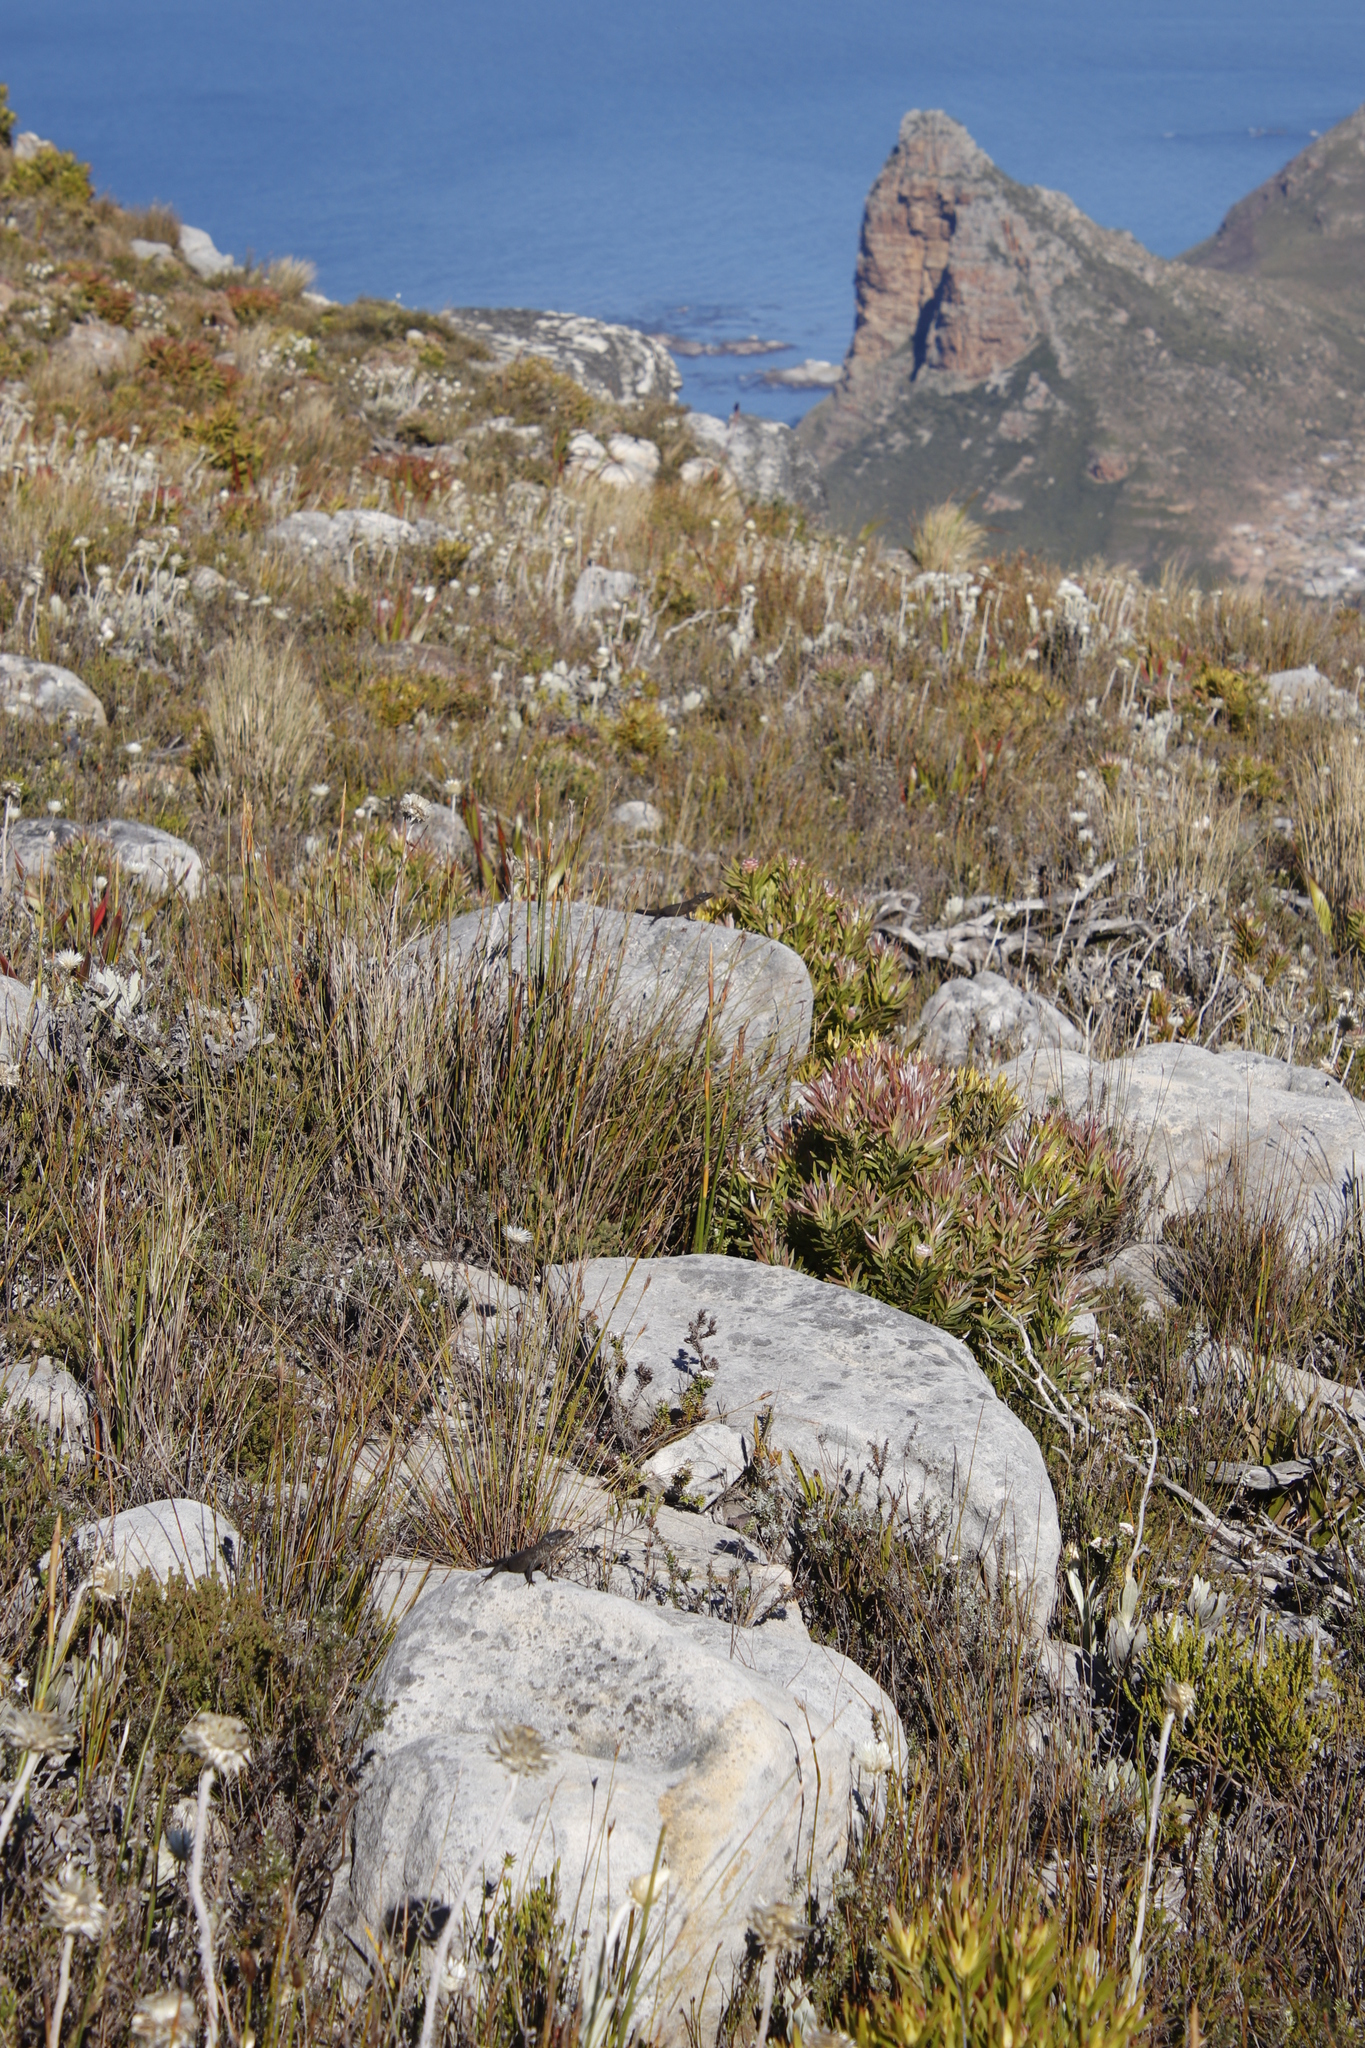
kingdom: Animalia
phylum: Chordata
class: Squamata
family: Cordylidae
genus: Cordylus
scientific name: Cordylus niger
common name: Black girdled lizard
